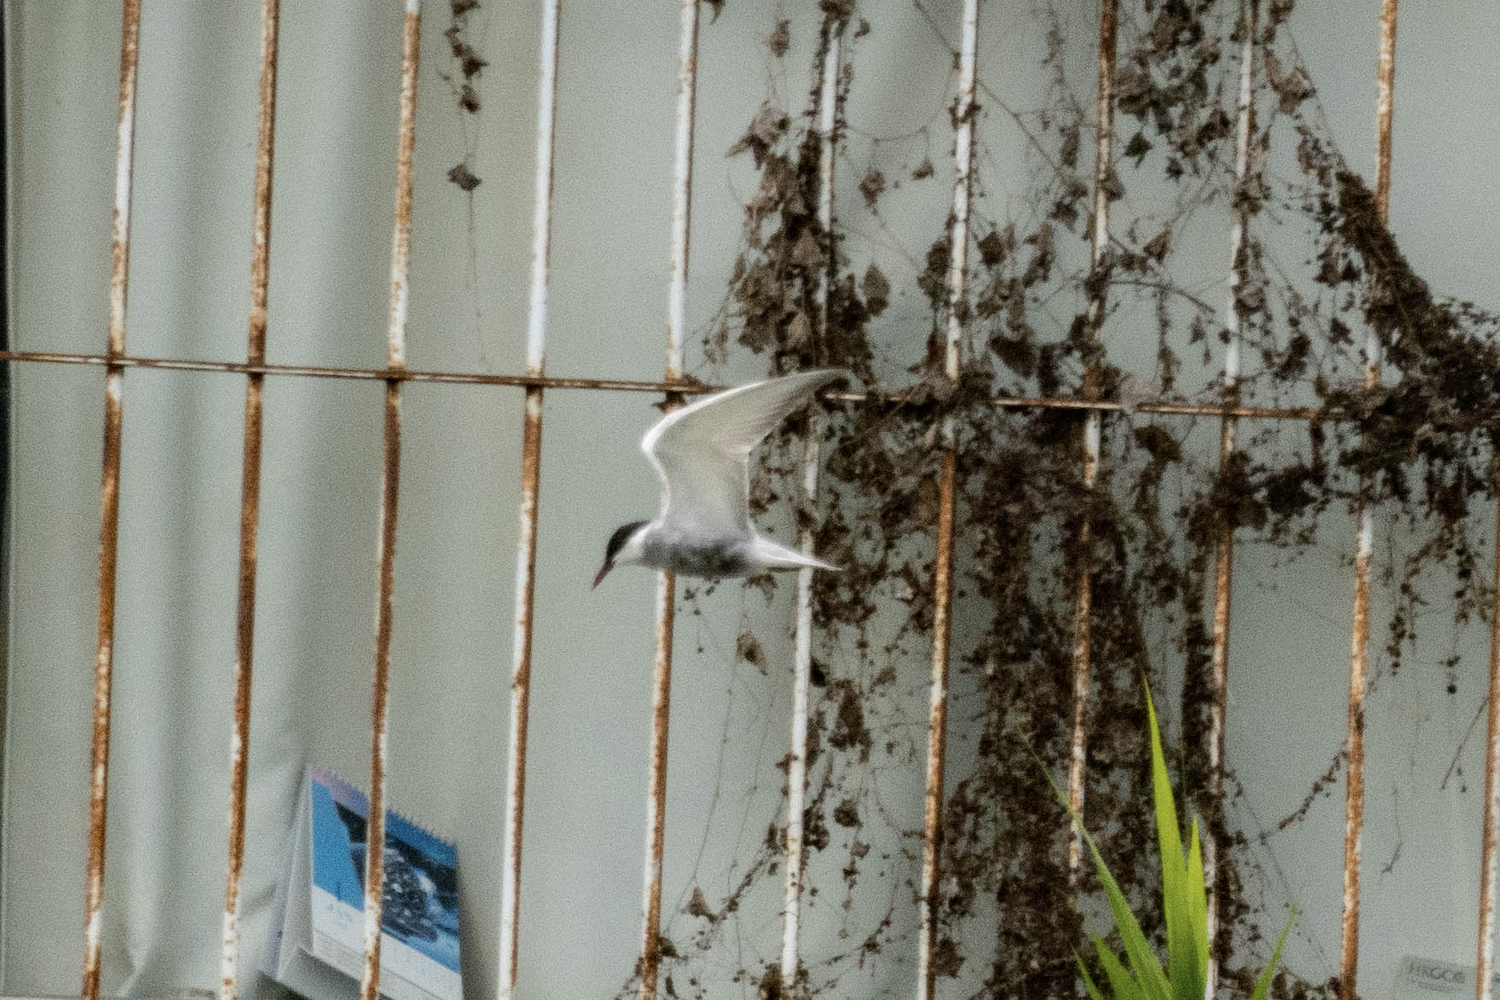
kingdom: Animalia
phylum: Chordata
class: Aves
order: Charadriiformes
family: Laridae
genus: Chlidonias
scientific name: Chlidonias hybrida
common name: Whiskered tern
